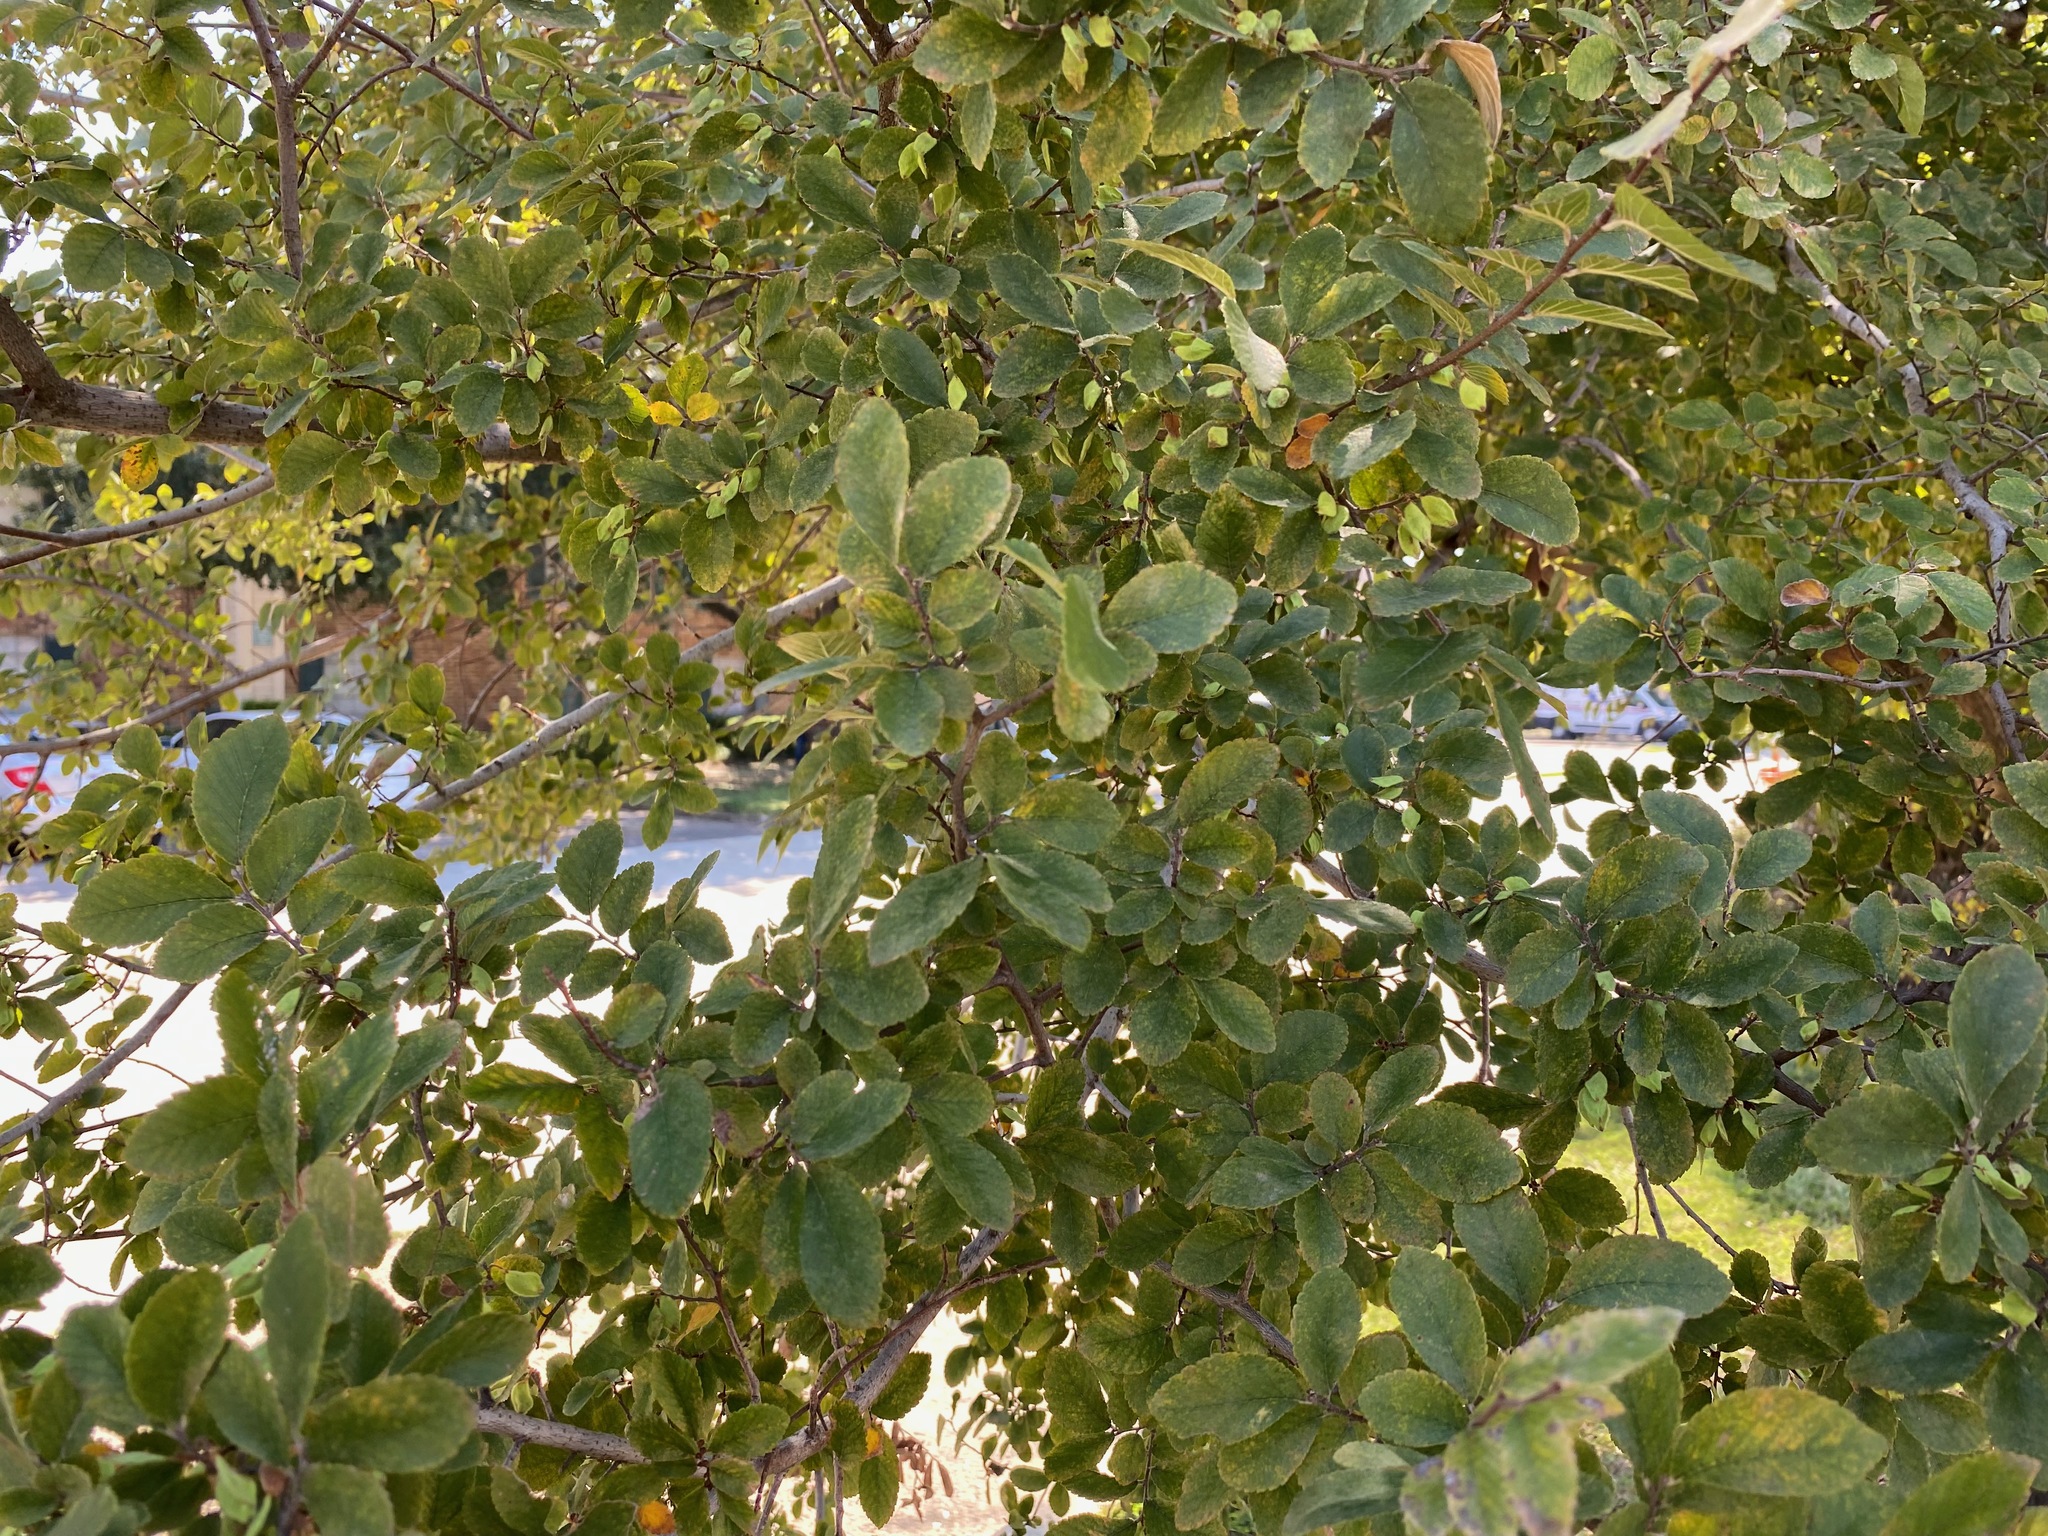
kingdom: Plantae
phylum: Tracheophyta
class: Magnoliopsida
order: Rosales
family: Ulmaceae
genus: Ulmus
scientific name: Ulmus crassifolia
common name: Basket elm
